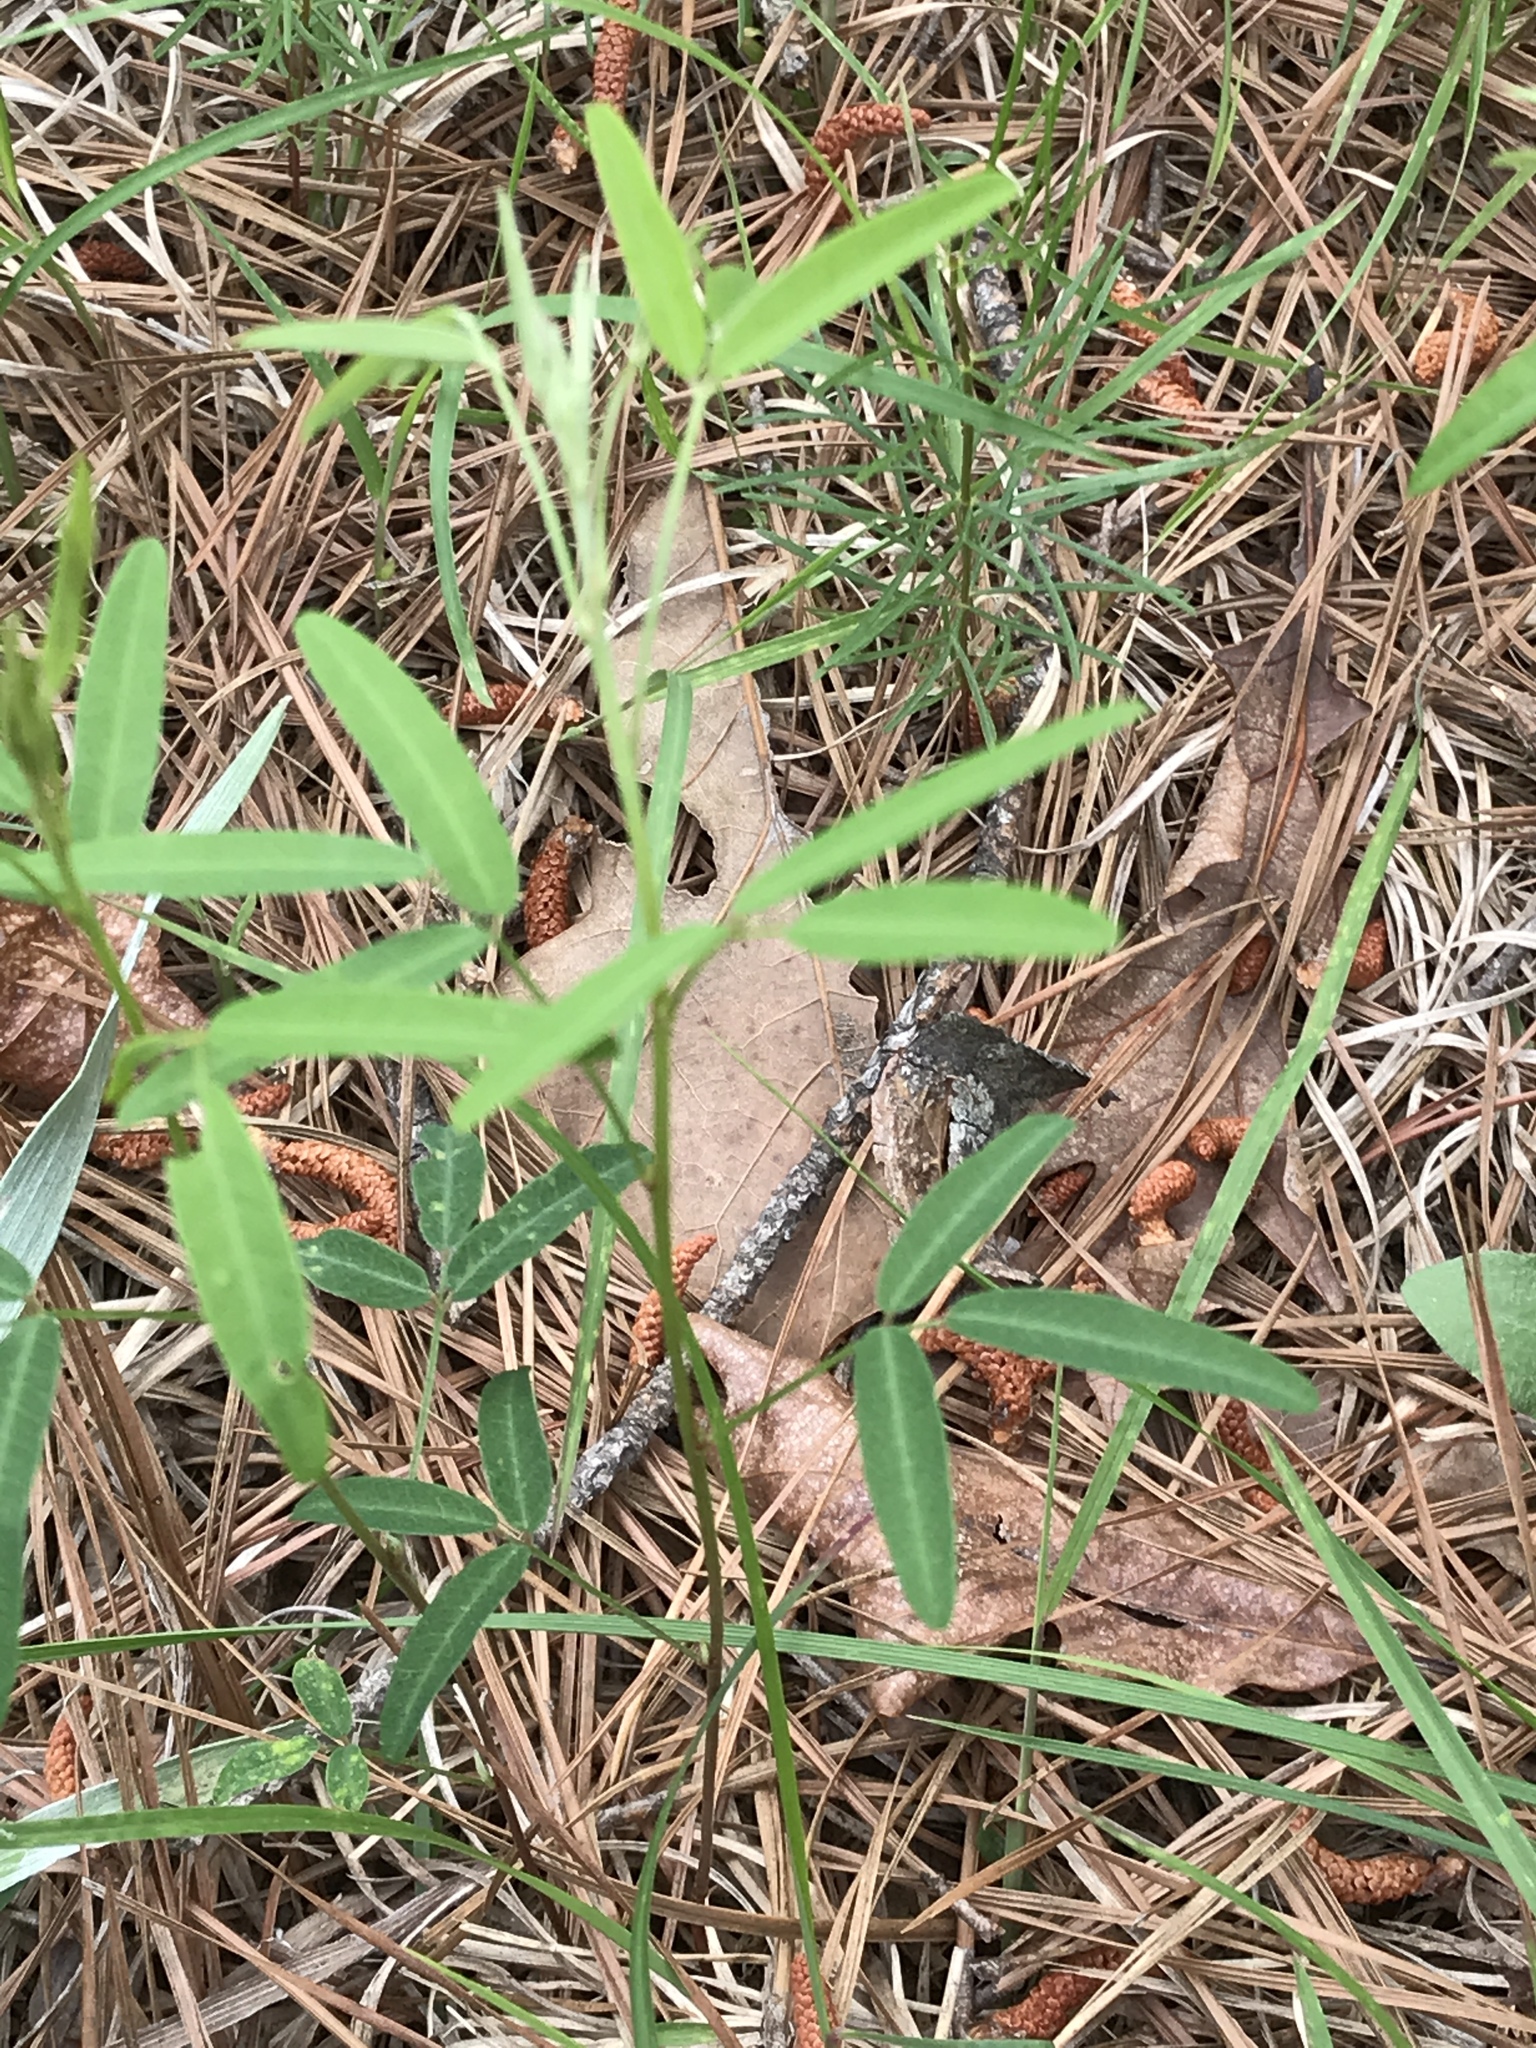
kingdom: Plantae
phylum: Tracheophyta
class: Magnoliopsida
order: Fabales
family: Fabaceae
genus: Lespedeza
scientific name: Lespedeza virginica
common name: Slender bush-clover
